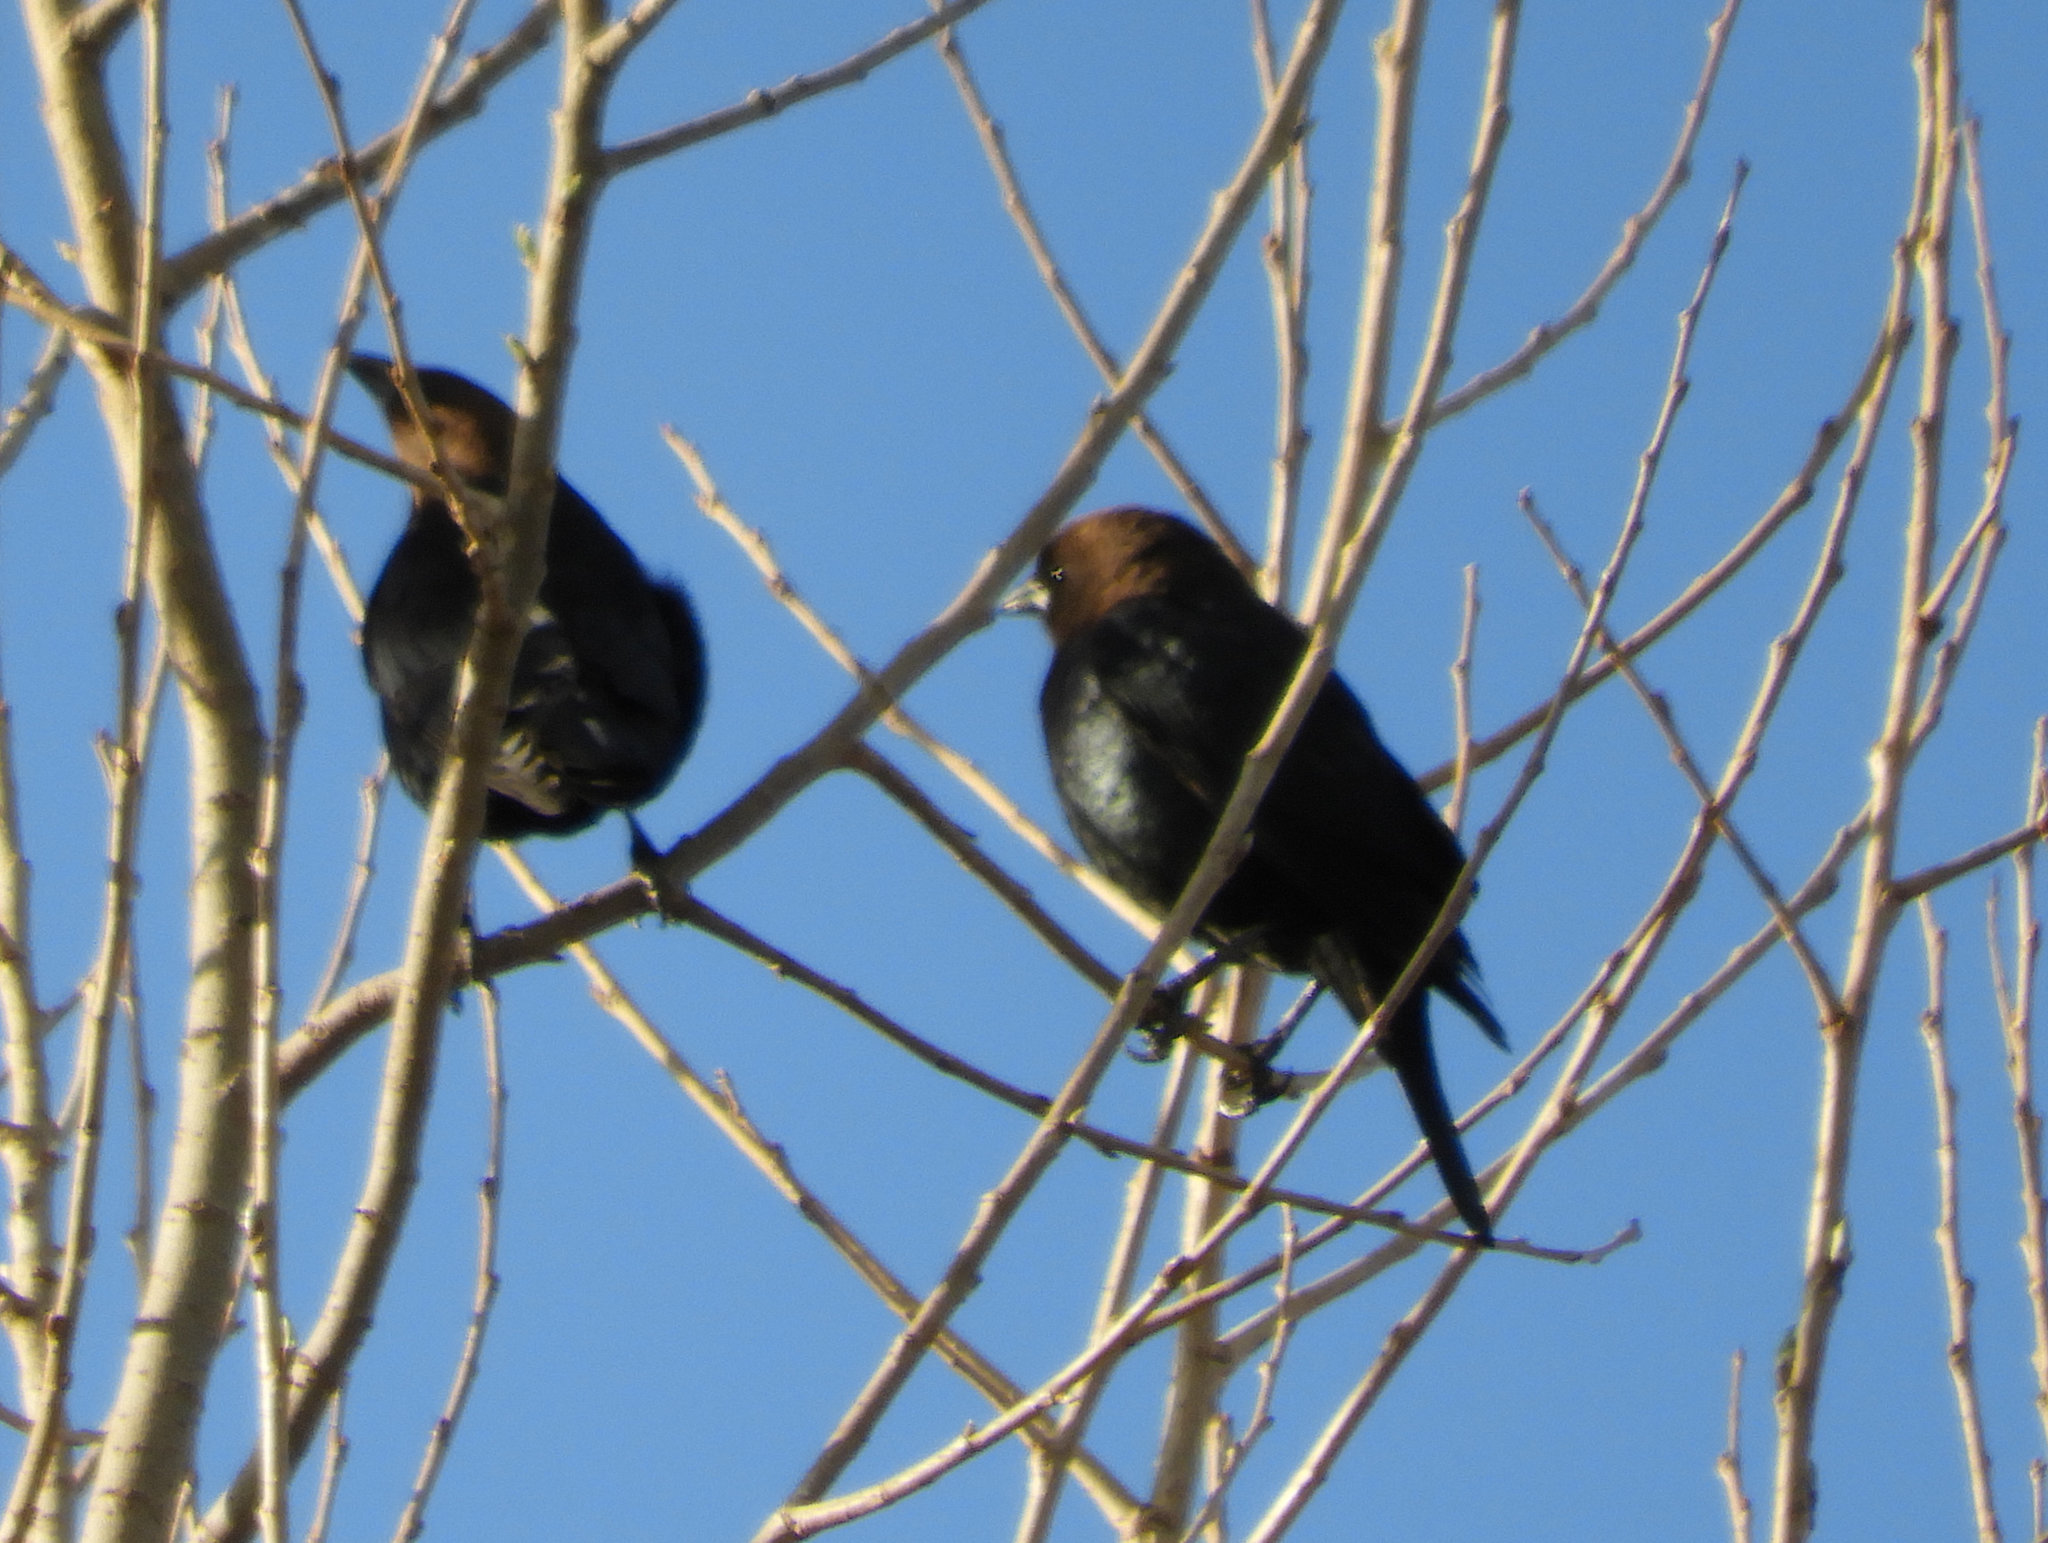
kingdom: Animalia
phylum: Chordata
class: Aves
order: Passeriformes
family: Icteridae
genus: Molothrus
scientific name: Molothrus ater
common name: Brown-headed cowbird
